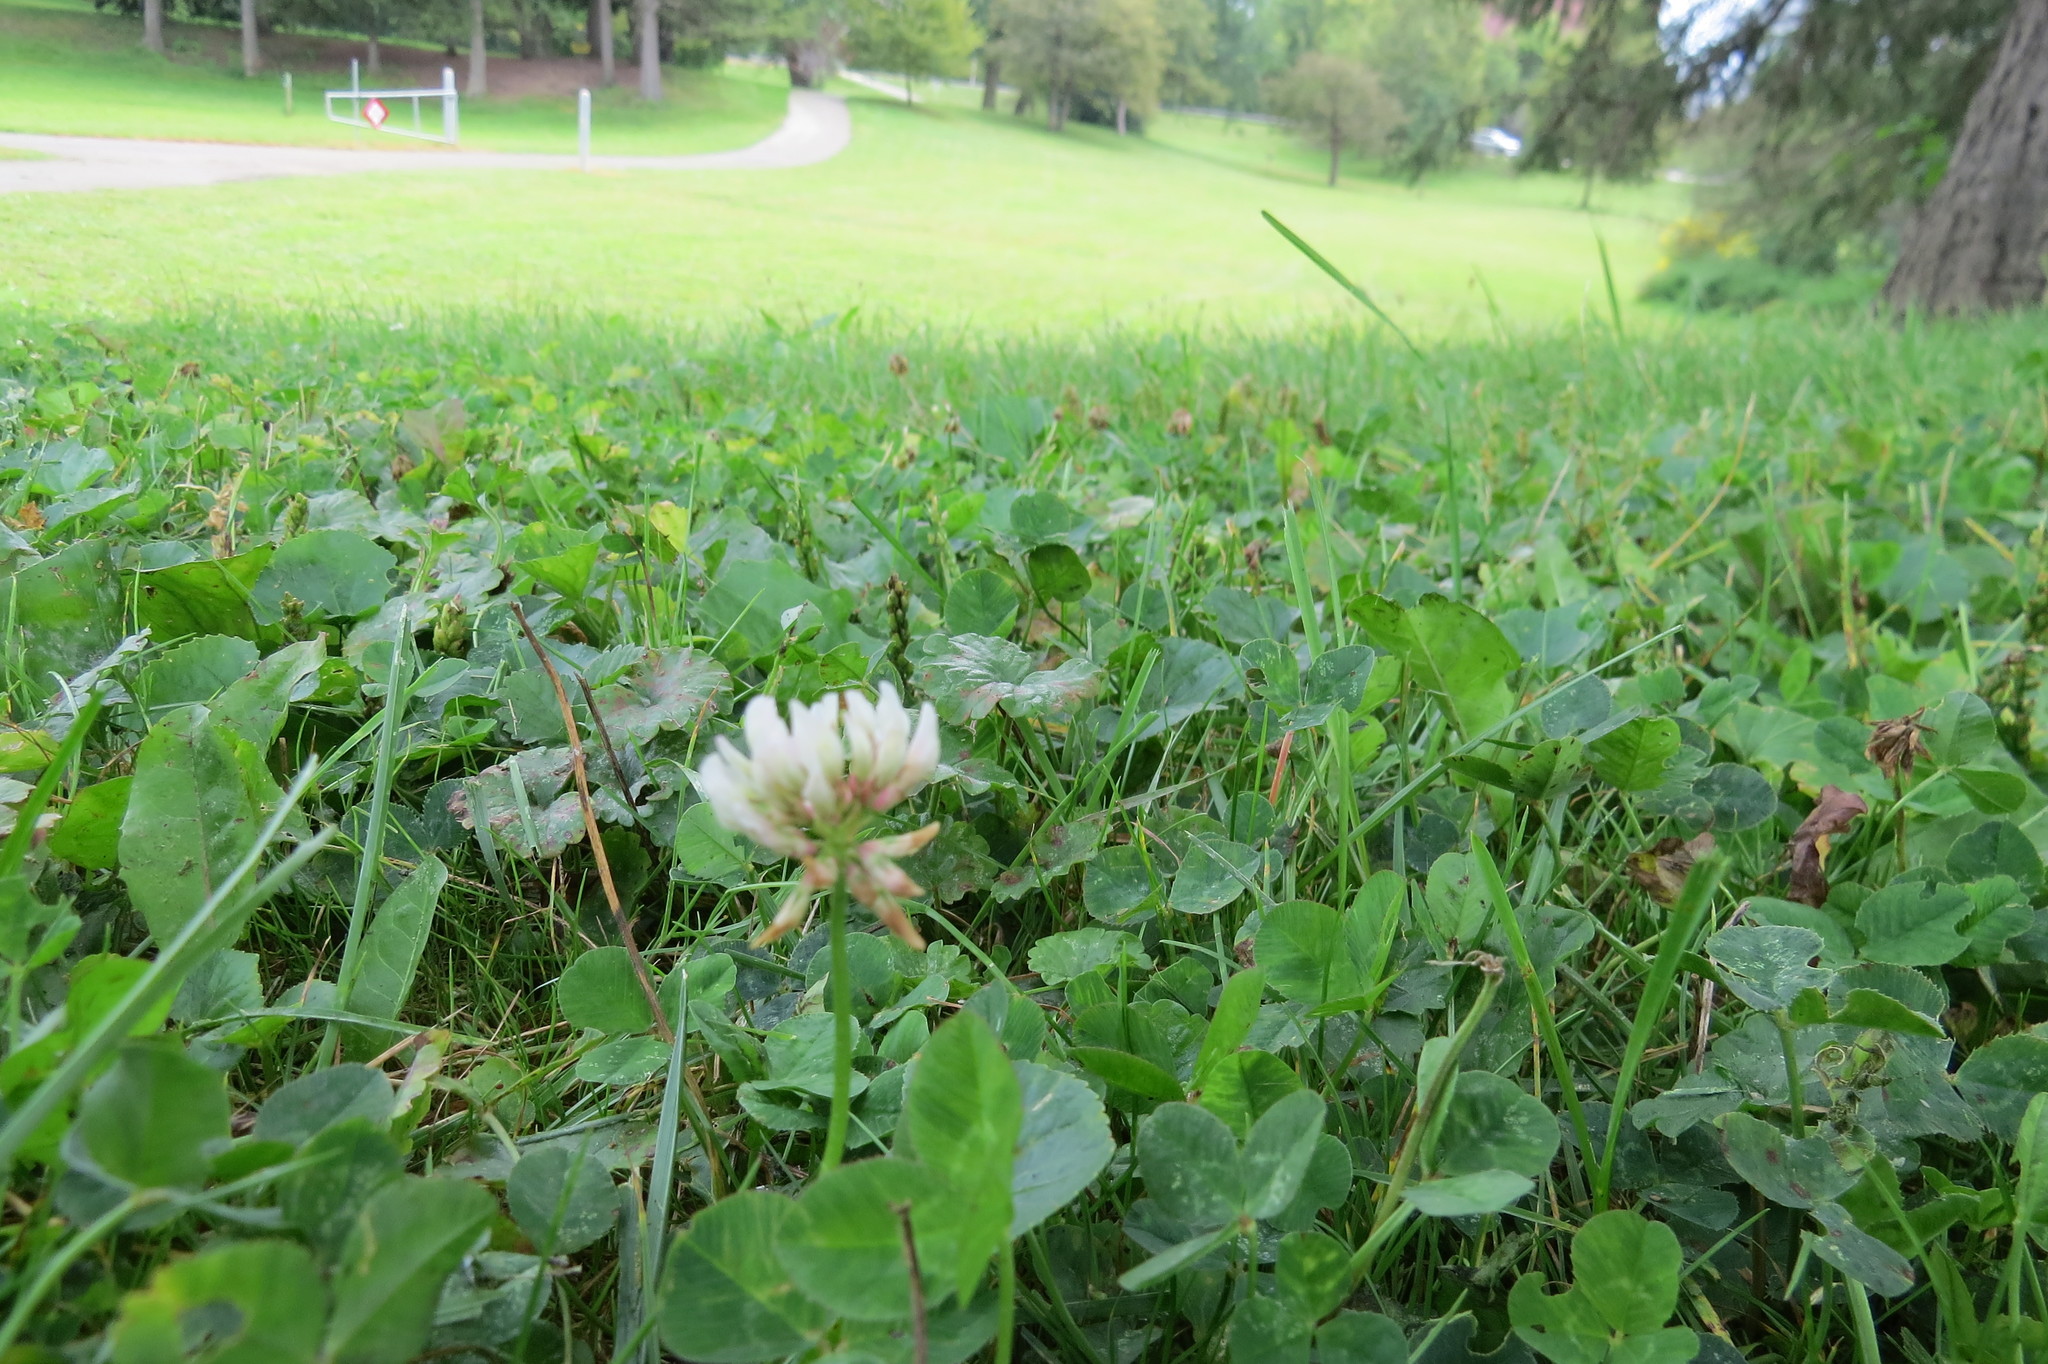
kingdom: Plantae
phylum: Tracheophyta
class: Magnoliopsida
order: Fabales
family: Fabaceae
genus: Trifolium
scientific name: Trifolium repens
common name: White clover
